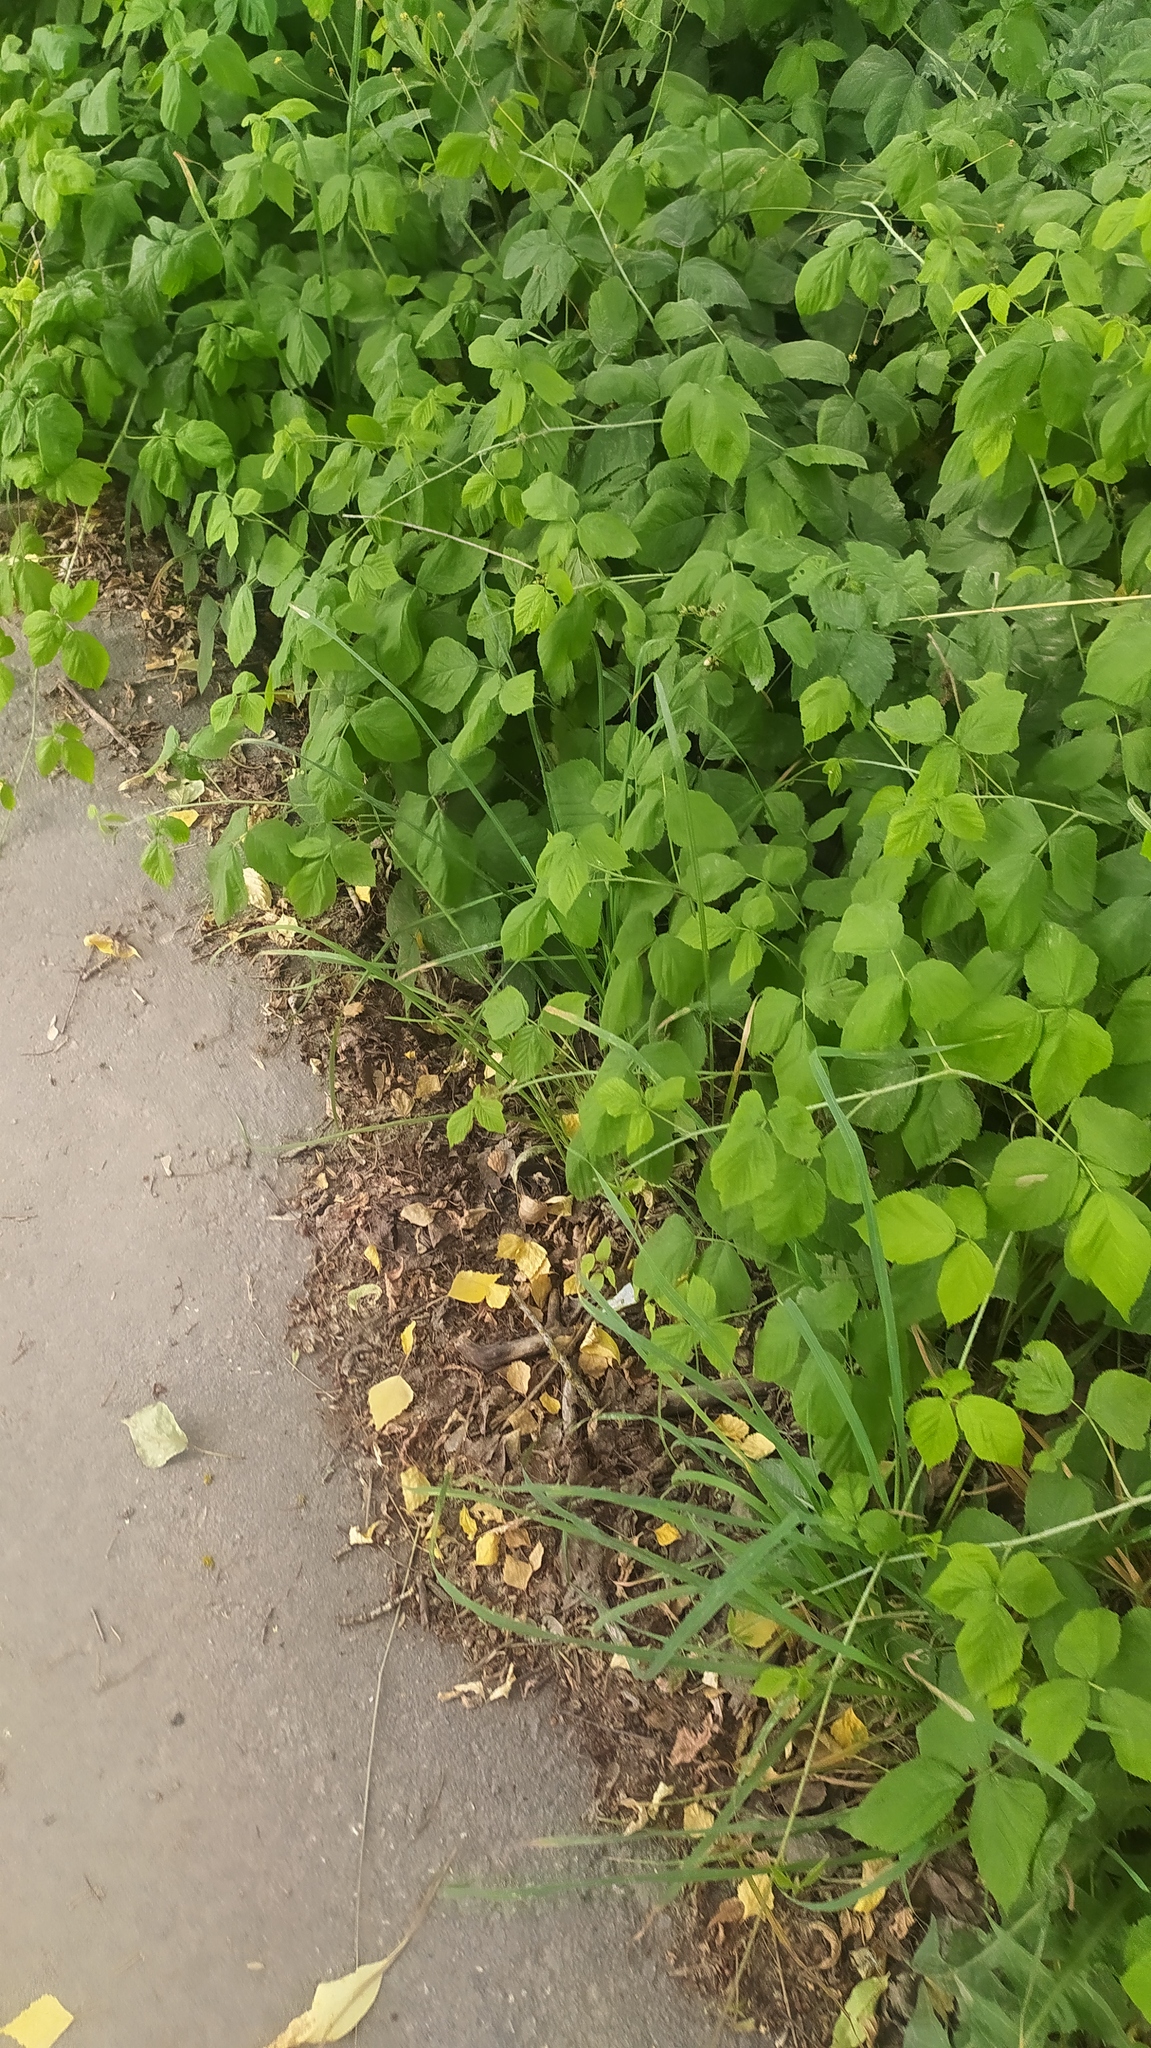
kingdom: Plantae
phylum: Tracheophyta
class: Magnoliopsida
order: Rosales
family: Rosaceae
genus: Rubus
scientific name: Rubus caesius
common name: Dewberry
